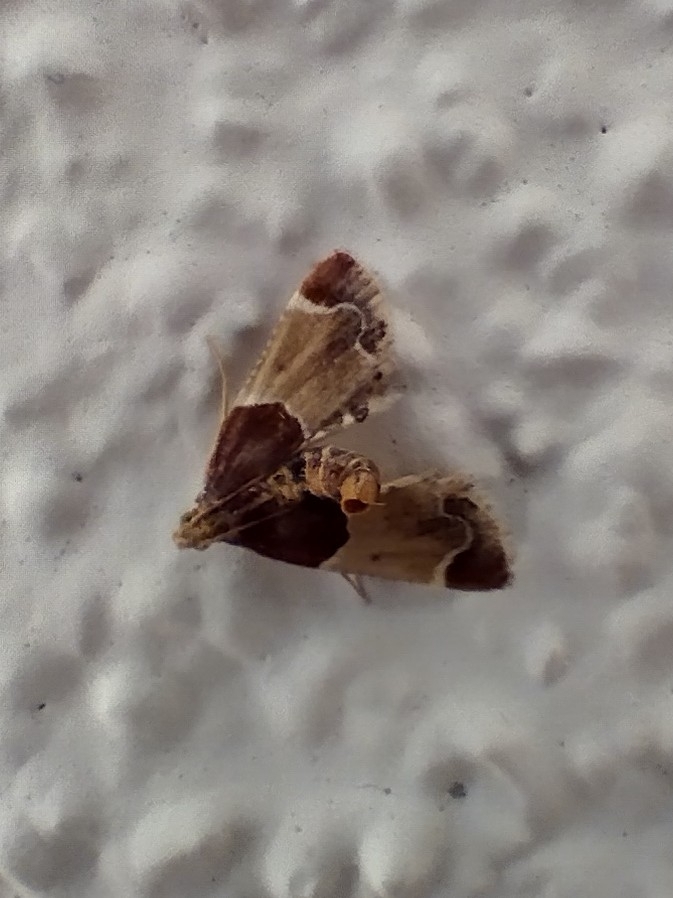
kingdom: Animalia
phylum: Arthropoda
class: Insecta
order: Lepidoptera
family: Pyralidae
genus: Pyralis
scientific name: Pyralis farinalis
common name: Meal moth
